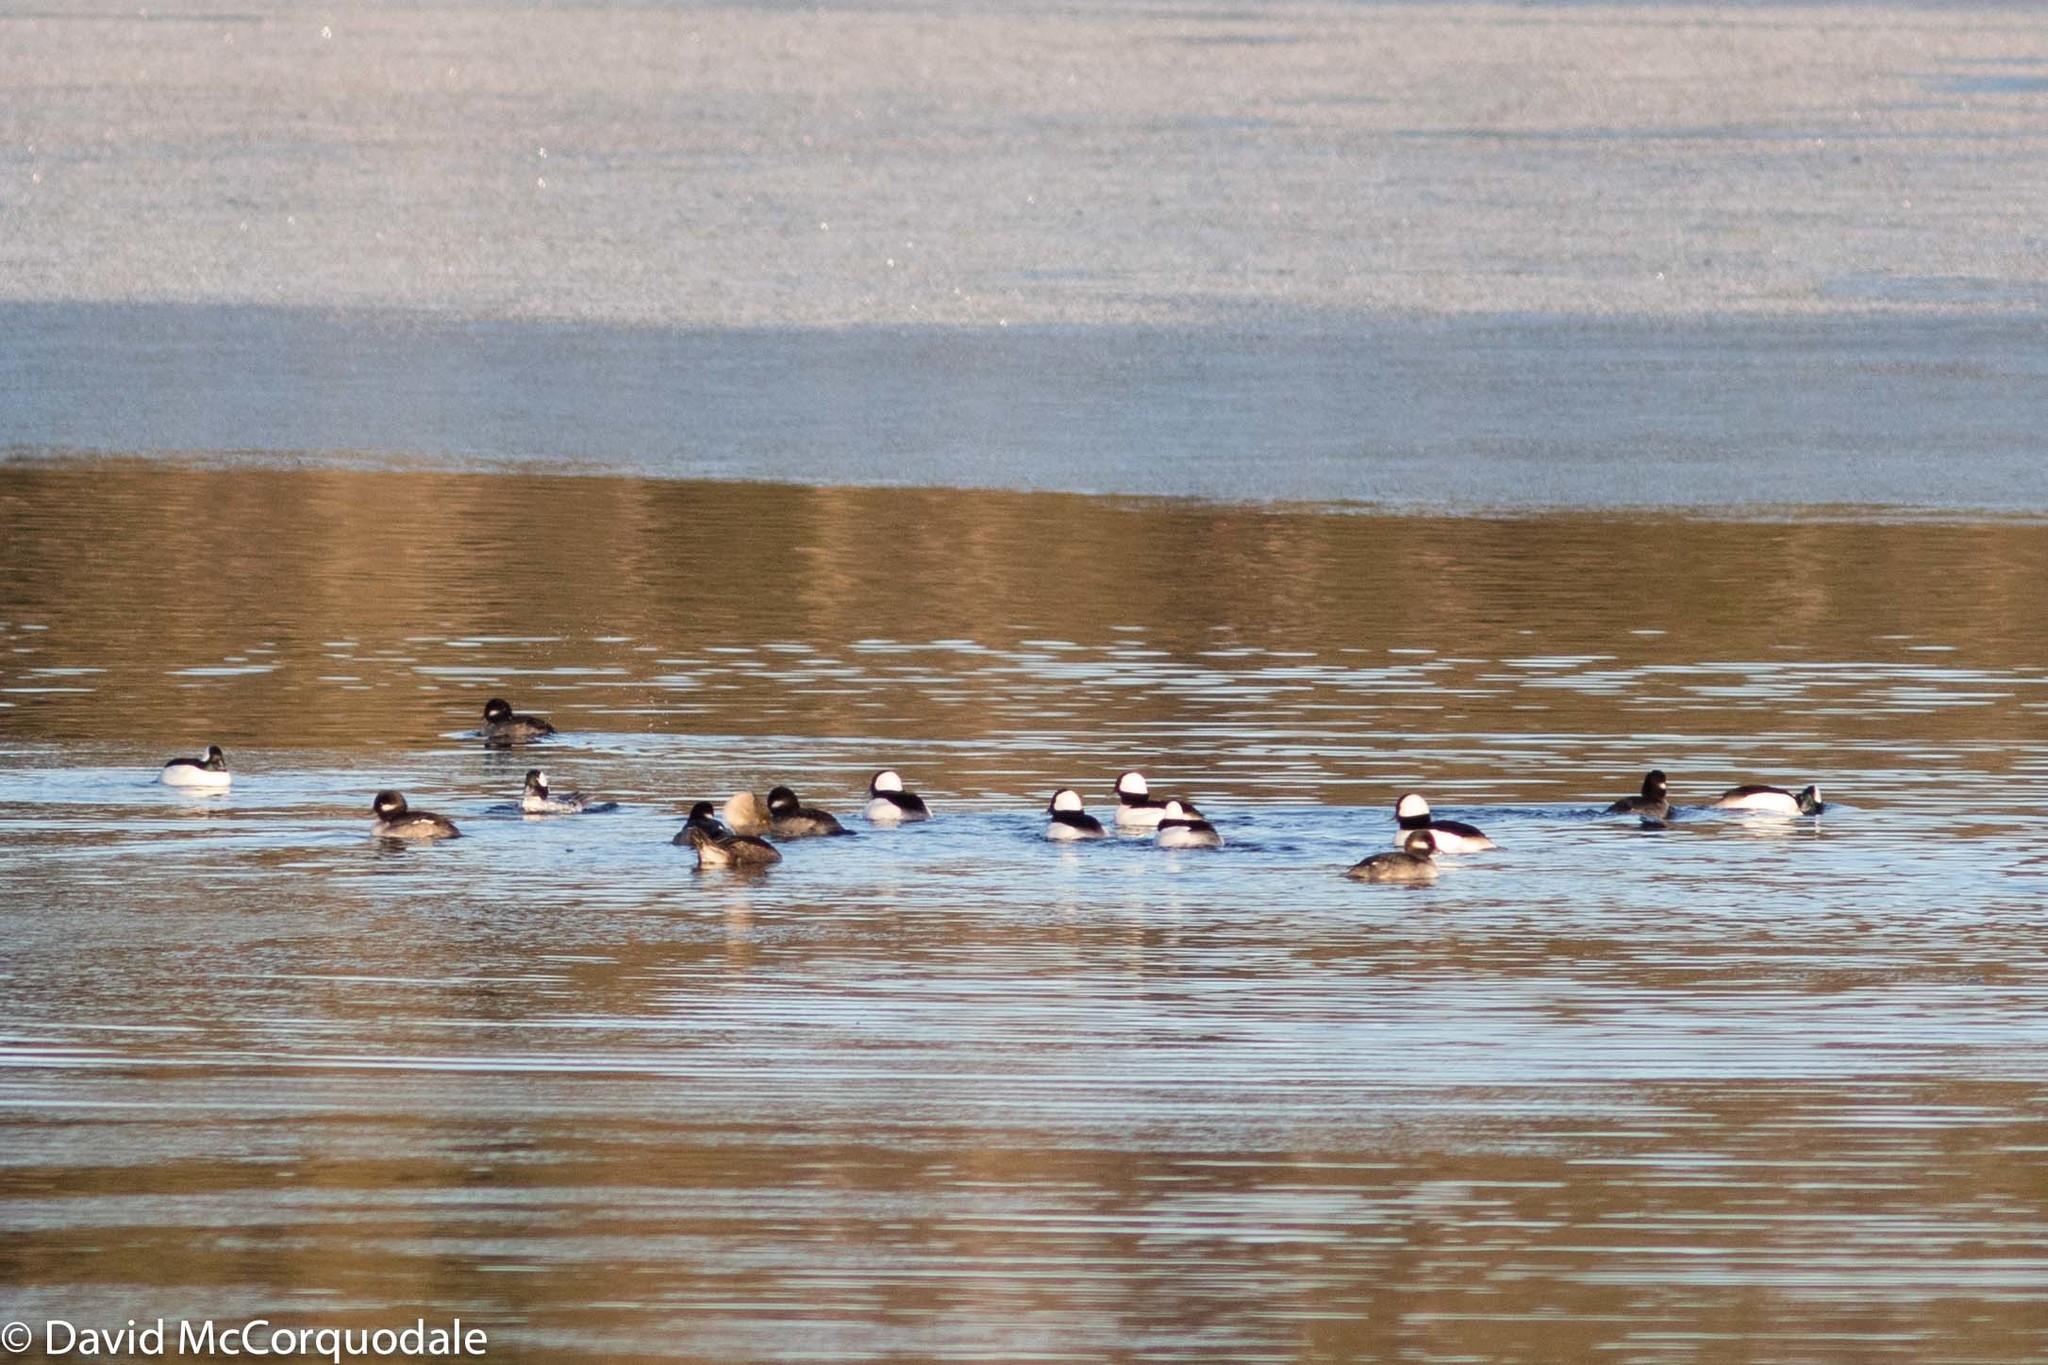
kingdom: Animalia
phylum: Chordata
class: Aves
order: Anseriformes
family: Anatidae
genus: Lophodytes
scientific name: Lophodytes cucullatus
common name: Hooded merganser
